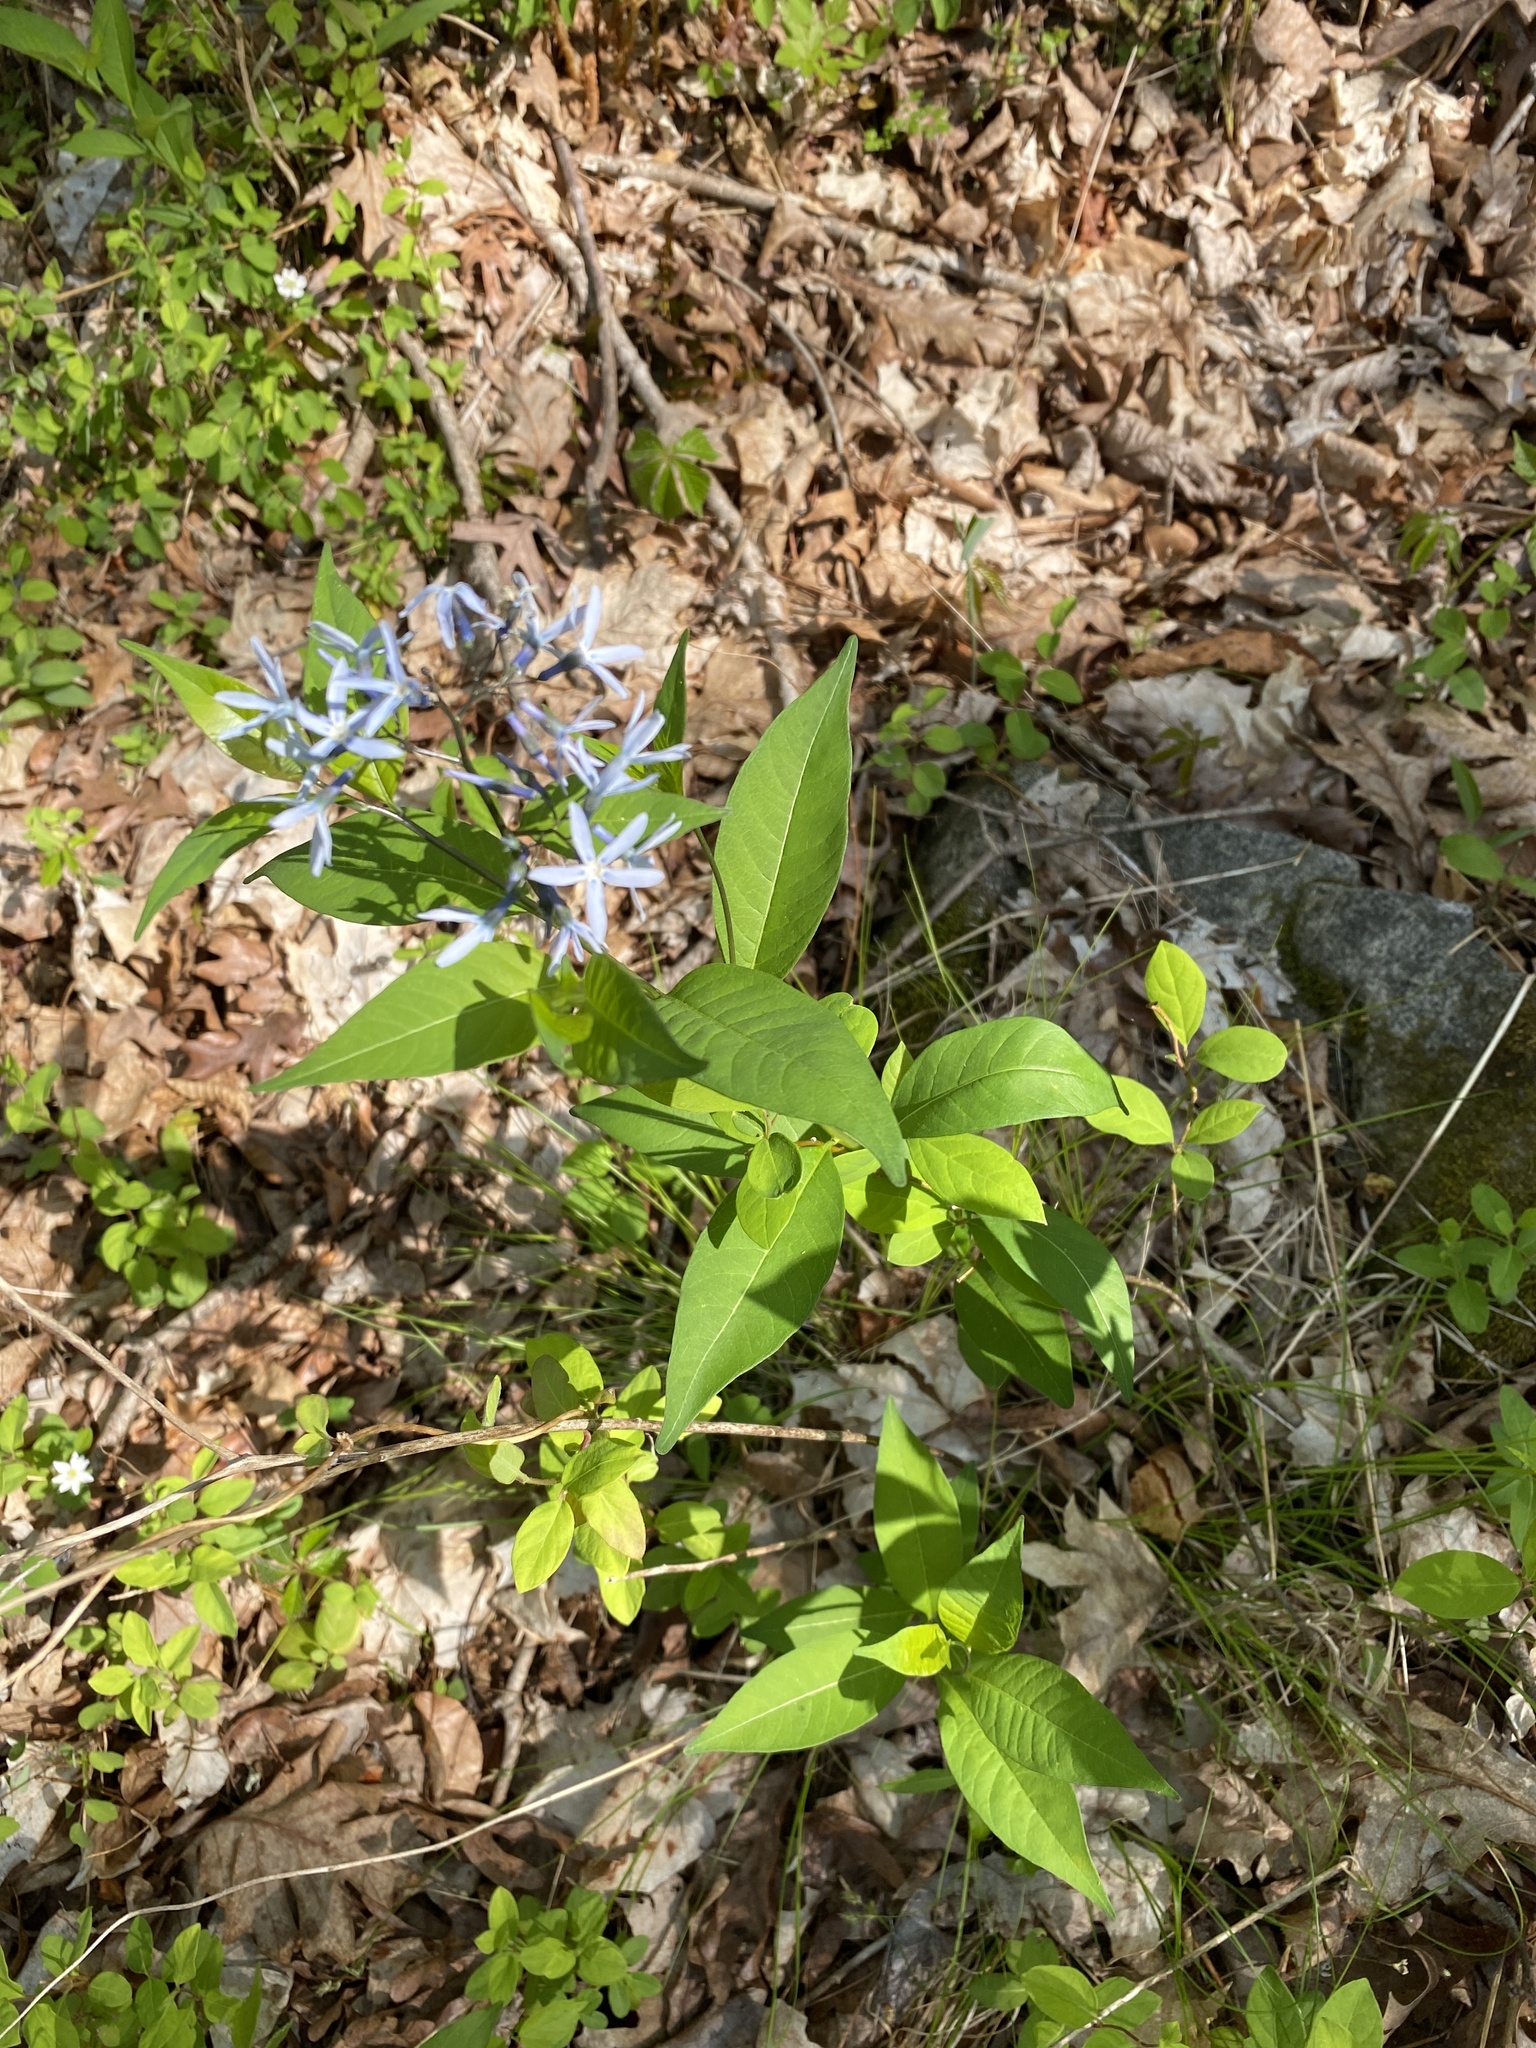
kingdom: Plantae
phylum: Tracheophyta
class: Magnoliopsida
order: Gentianales
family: Apocynaceae
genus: Amsonia
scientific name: Amsonia tabernaemontana
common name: Texas-star
